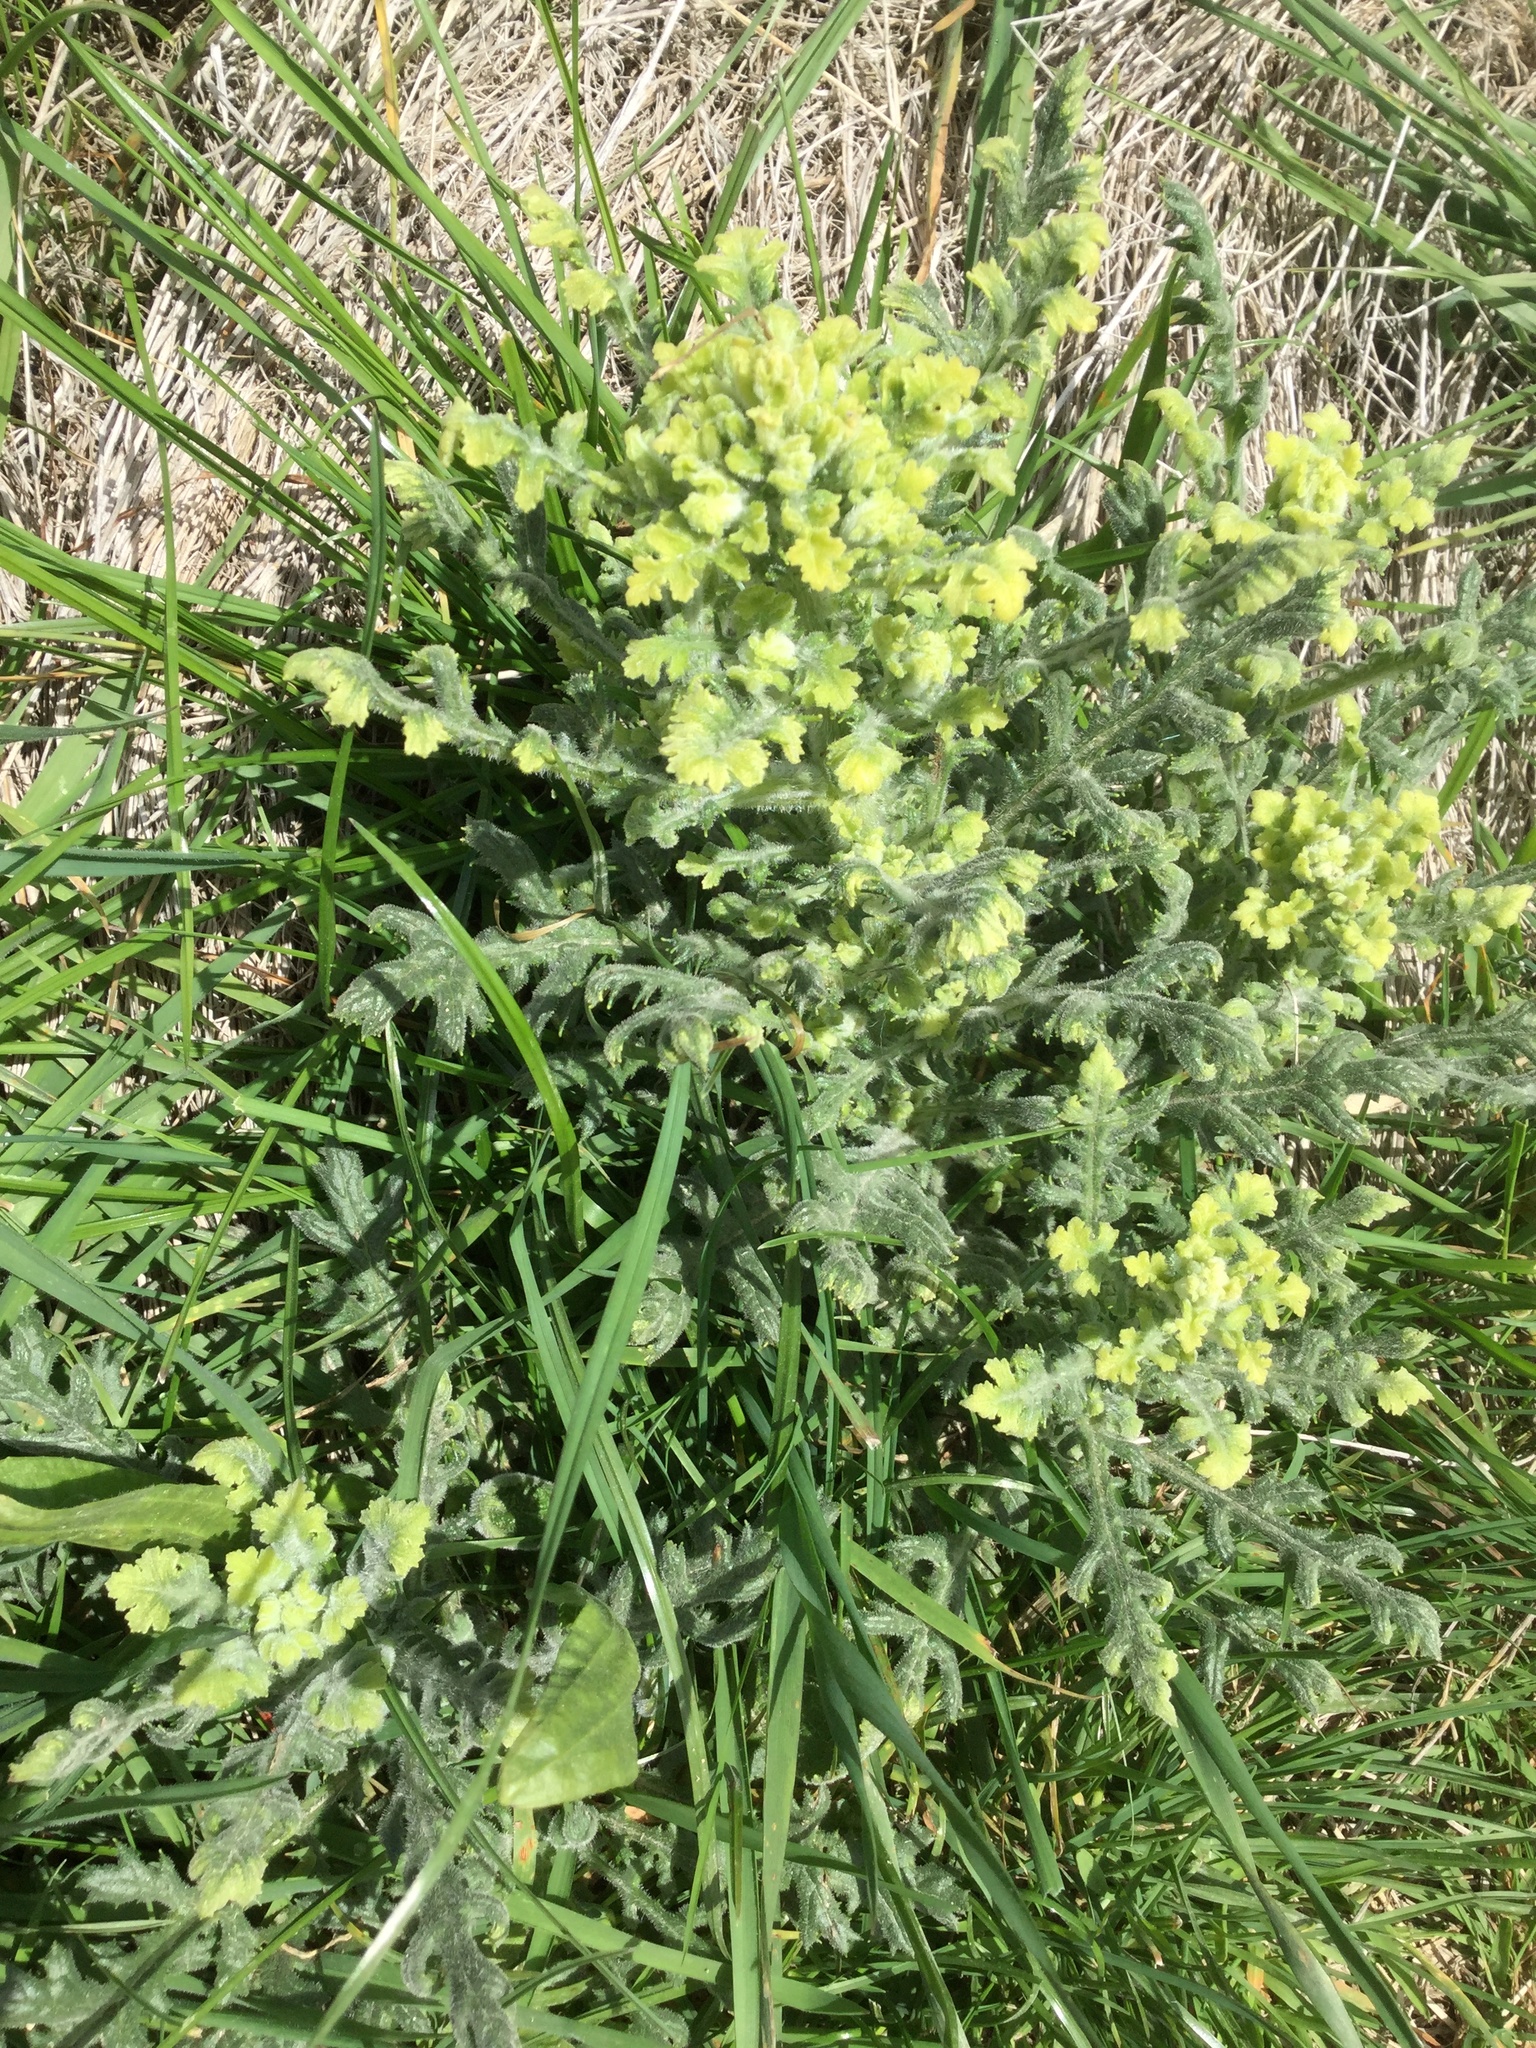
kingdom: Plantae
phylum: Tracheophyta
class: Magnoliopsida
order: Asterales
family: Asteraceae
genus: Senecio
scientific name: Senecio sylvaticus
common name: Woodland ragwort
